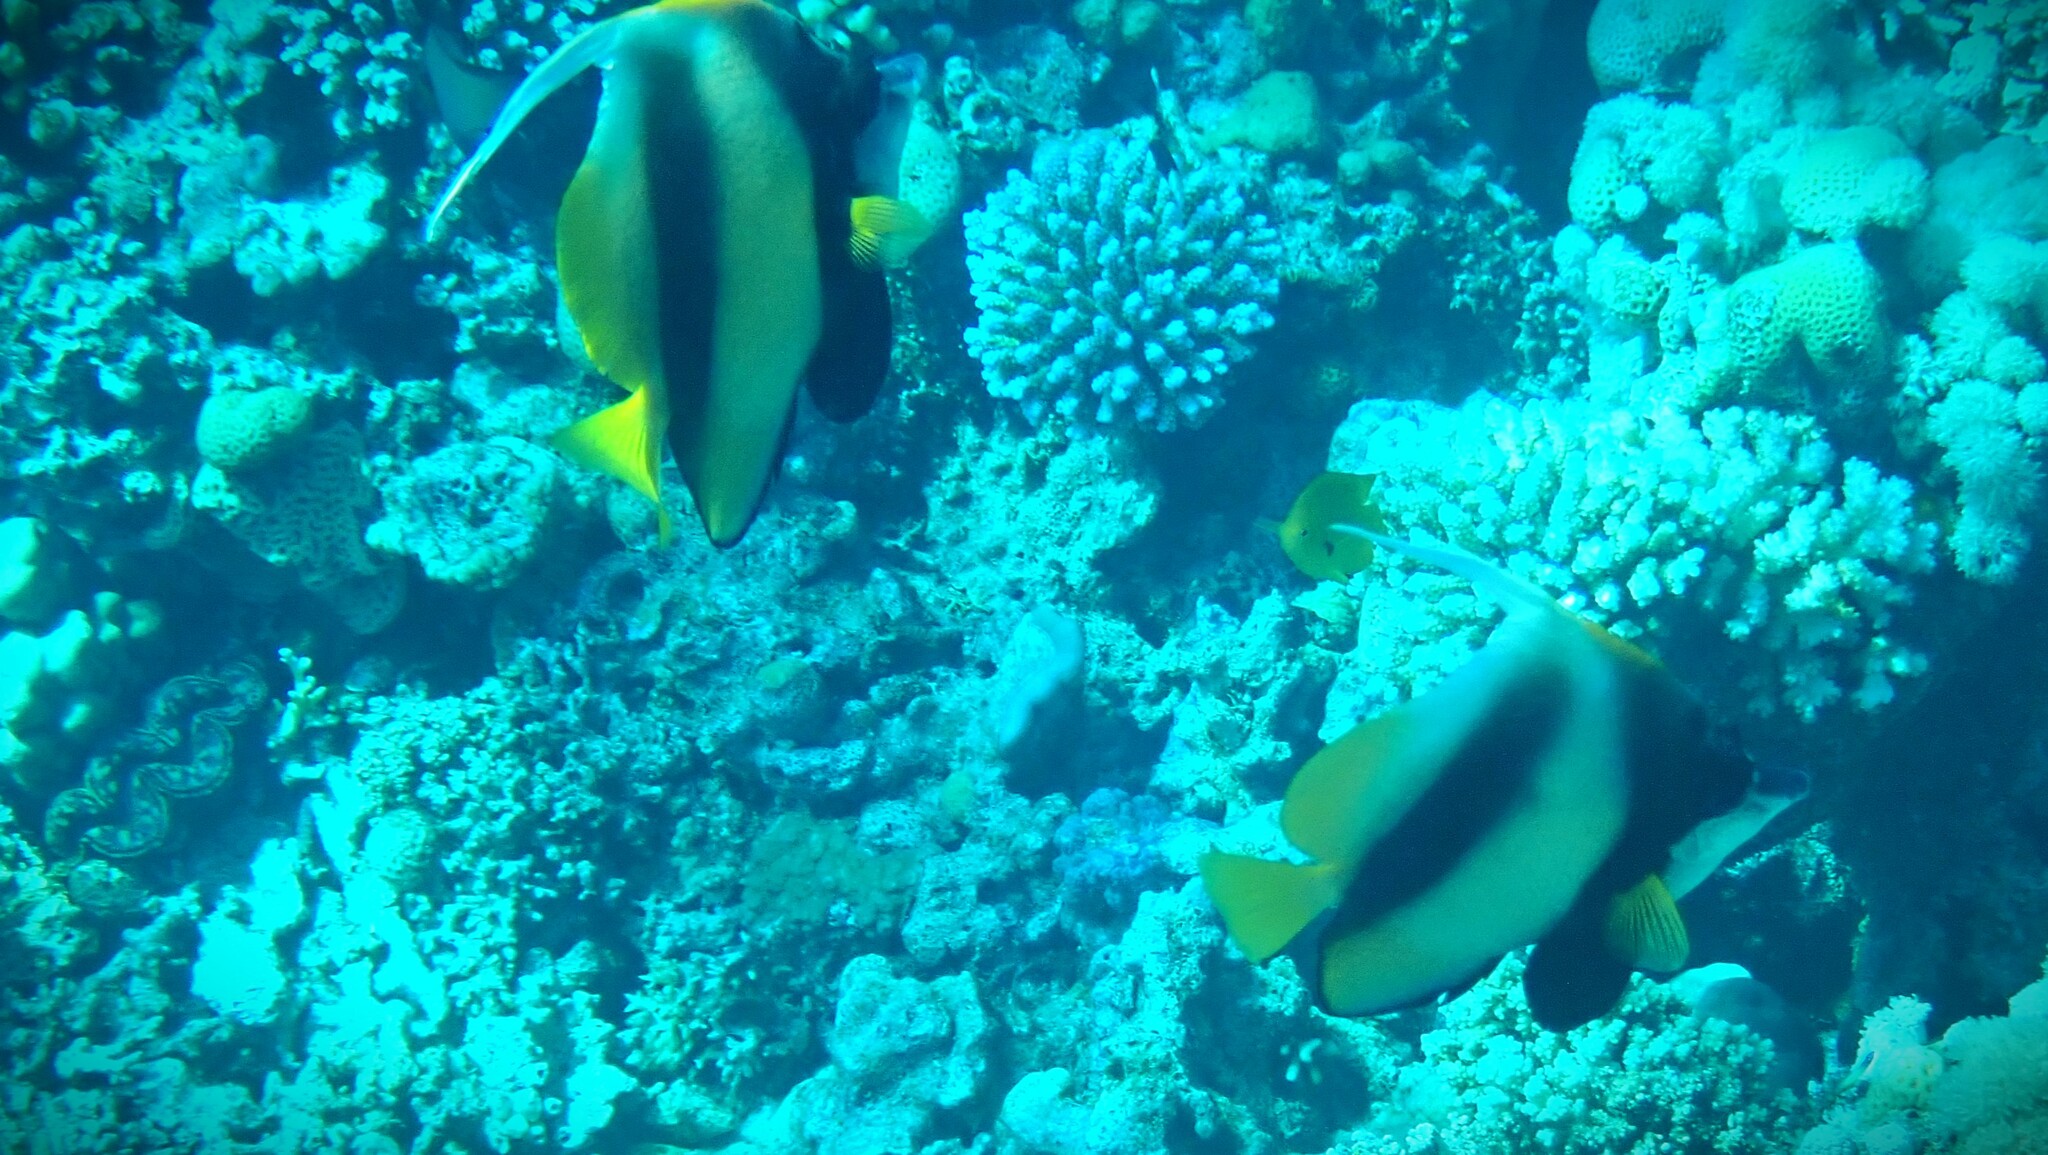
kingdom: Animalia
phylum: Chordata
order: Perciformes
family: Chaetodontidae
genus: Heniochus
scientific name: Heniochus intermedius
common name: Red sea bannerfish
